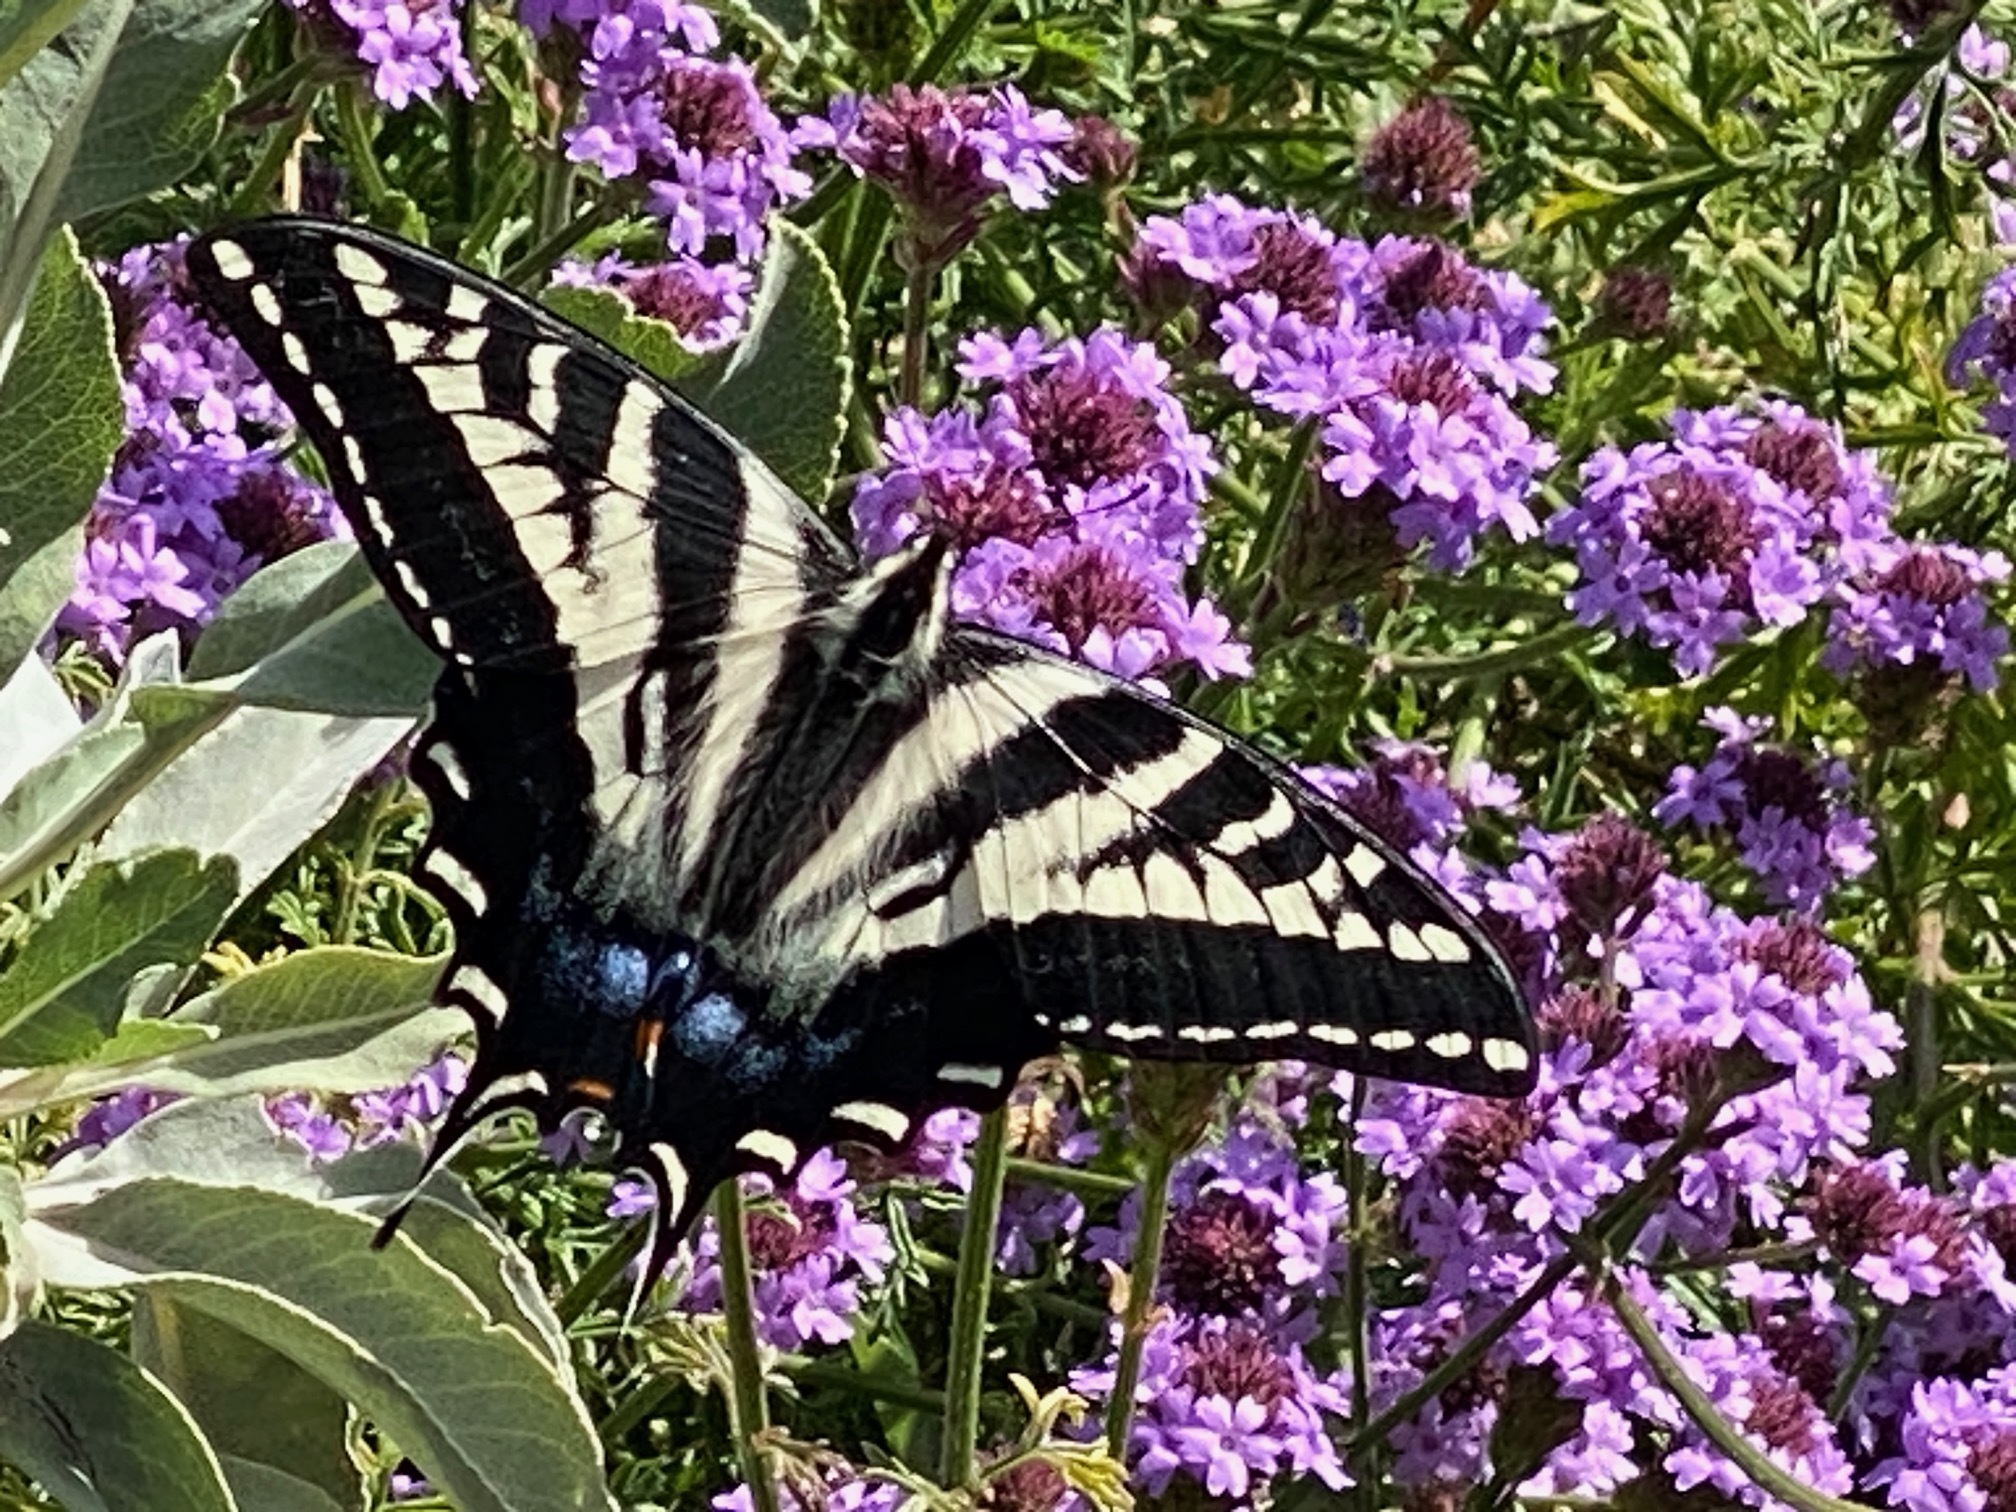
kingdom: Animalia
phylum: Arthropoda
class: Insecta
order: Lepidoptera
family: Papilionidae
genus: Papilio
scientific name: Papilio eurymedon
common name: Pale tiger swallowtail
